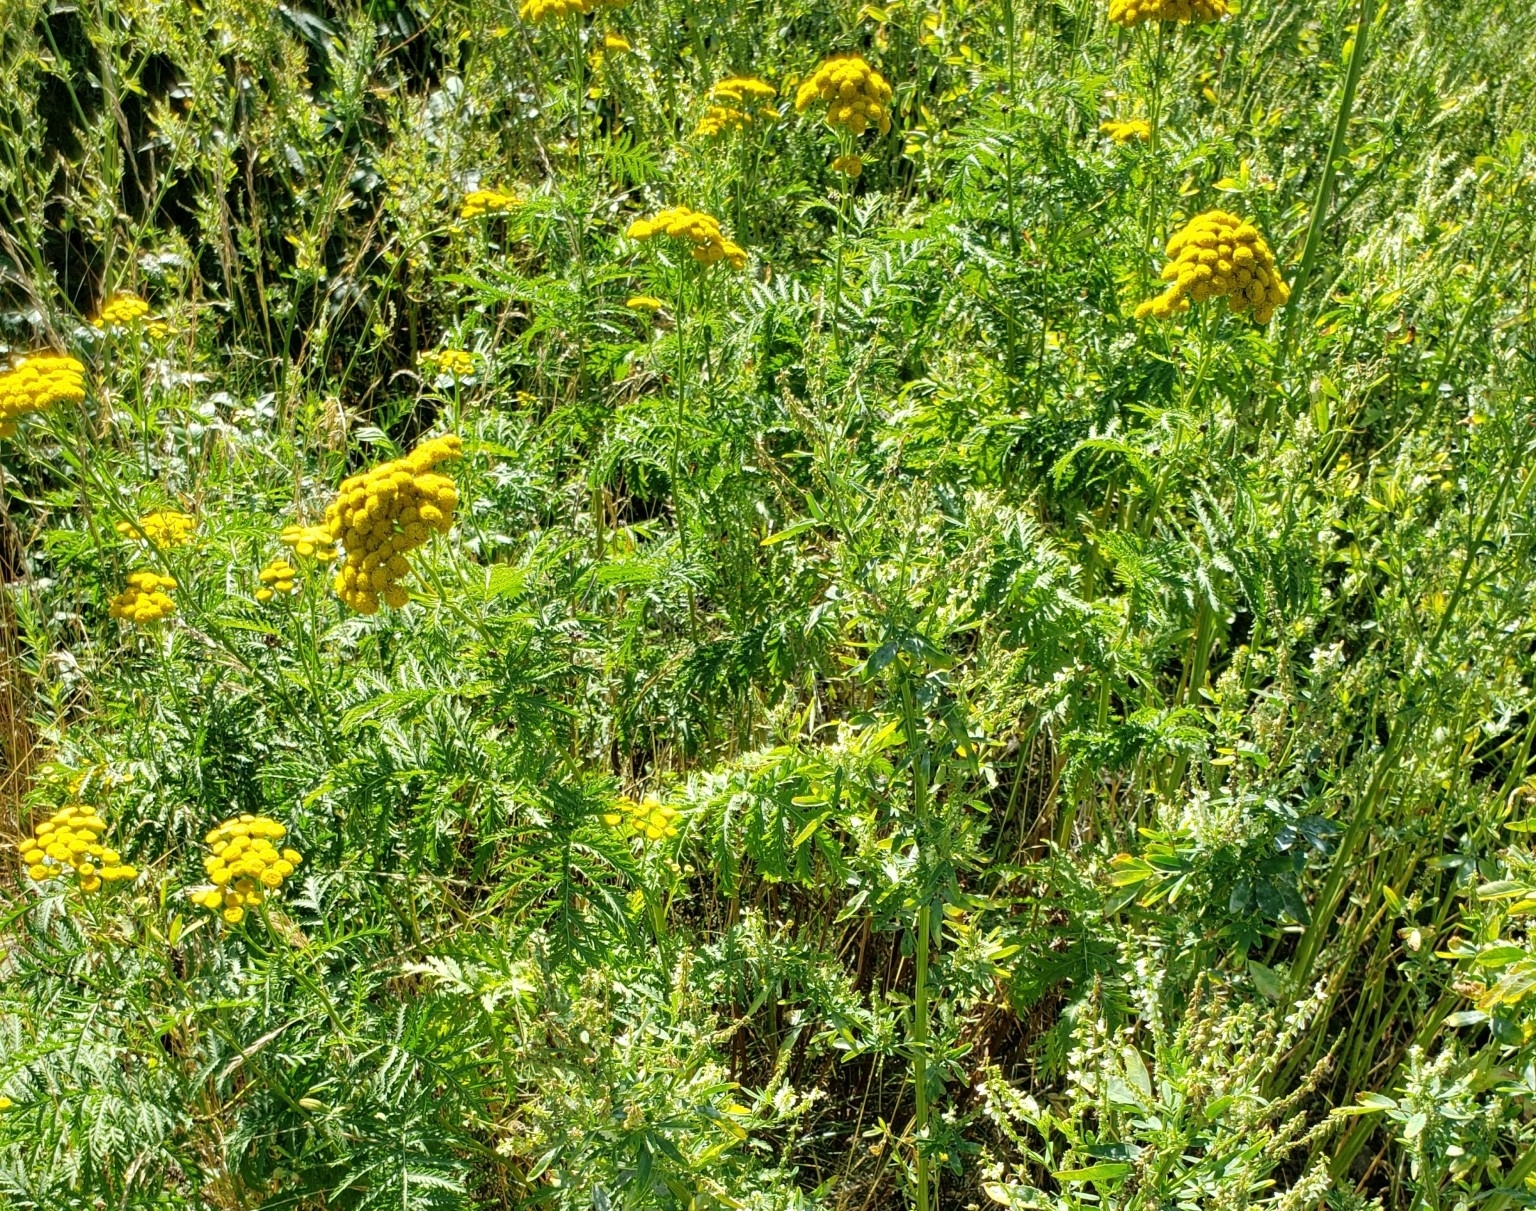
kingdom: Plantae
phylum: Tracheophyta
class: Magnoliopsida
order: Asterales
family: Asteraceae
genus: Tanacetum
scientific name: Tanacetum vulgare
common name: Common tansy
